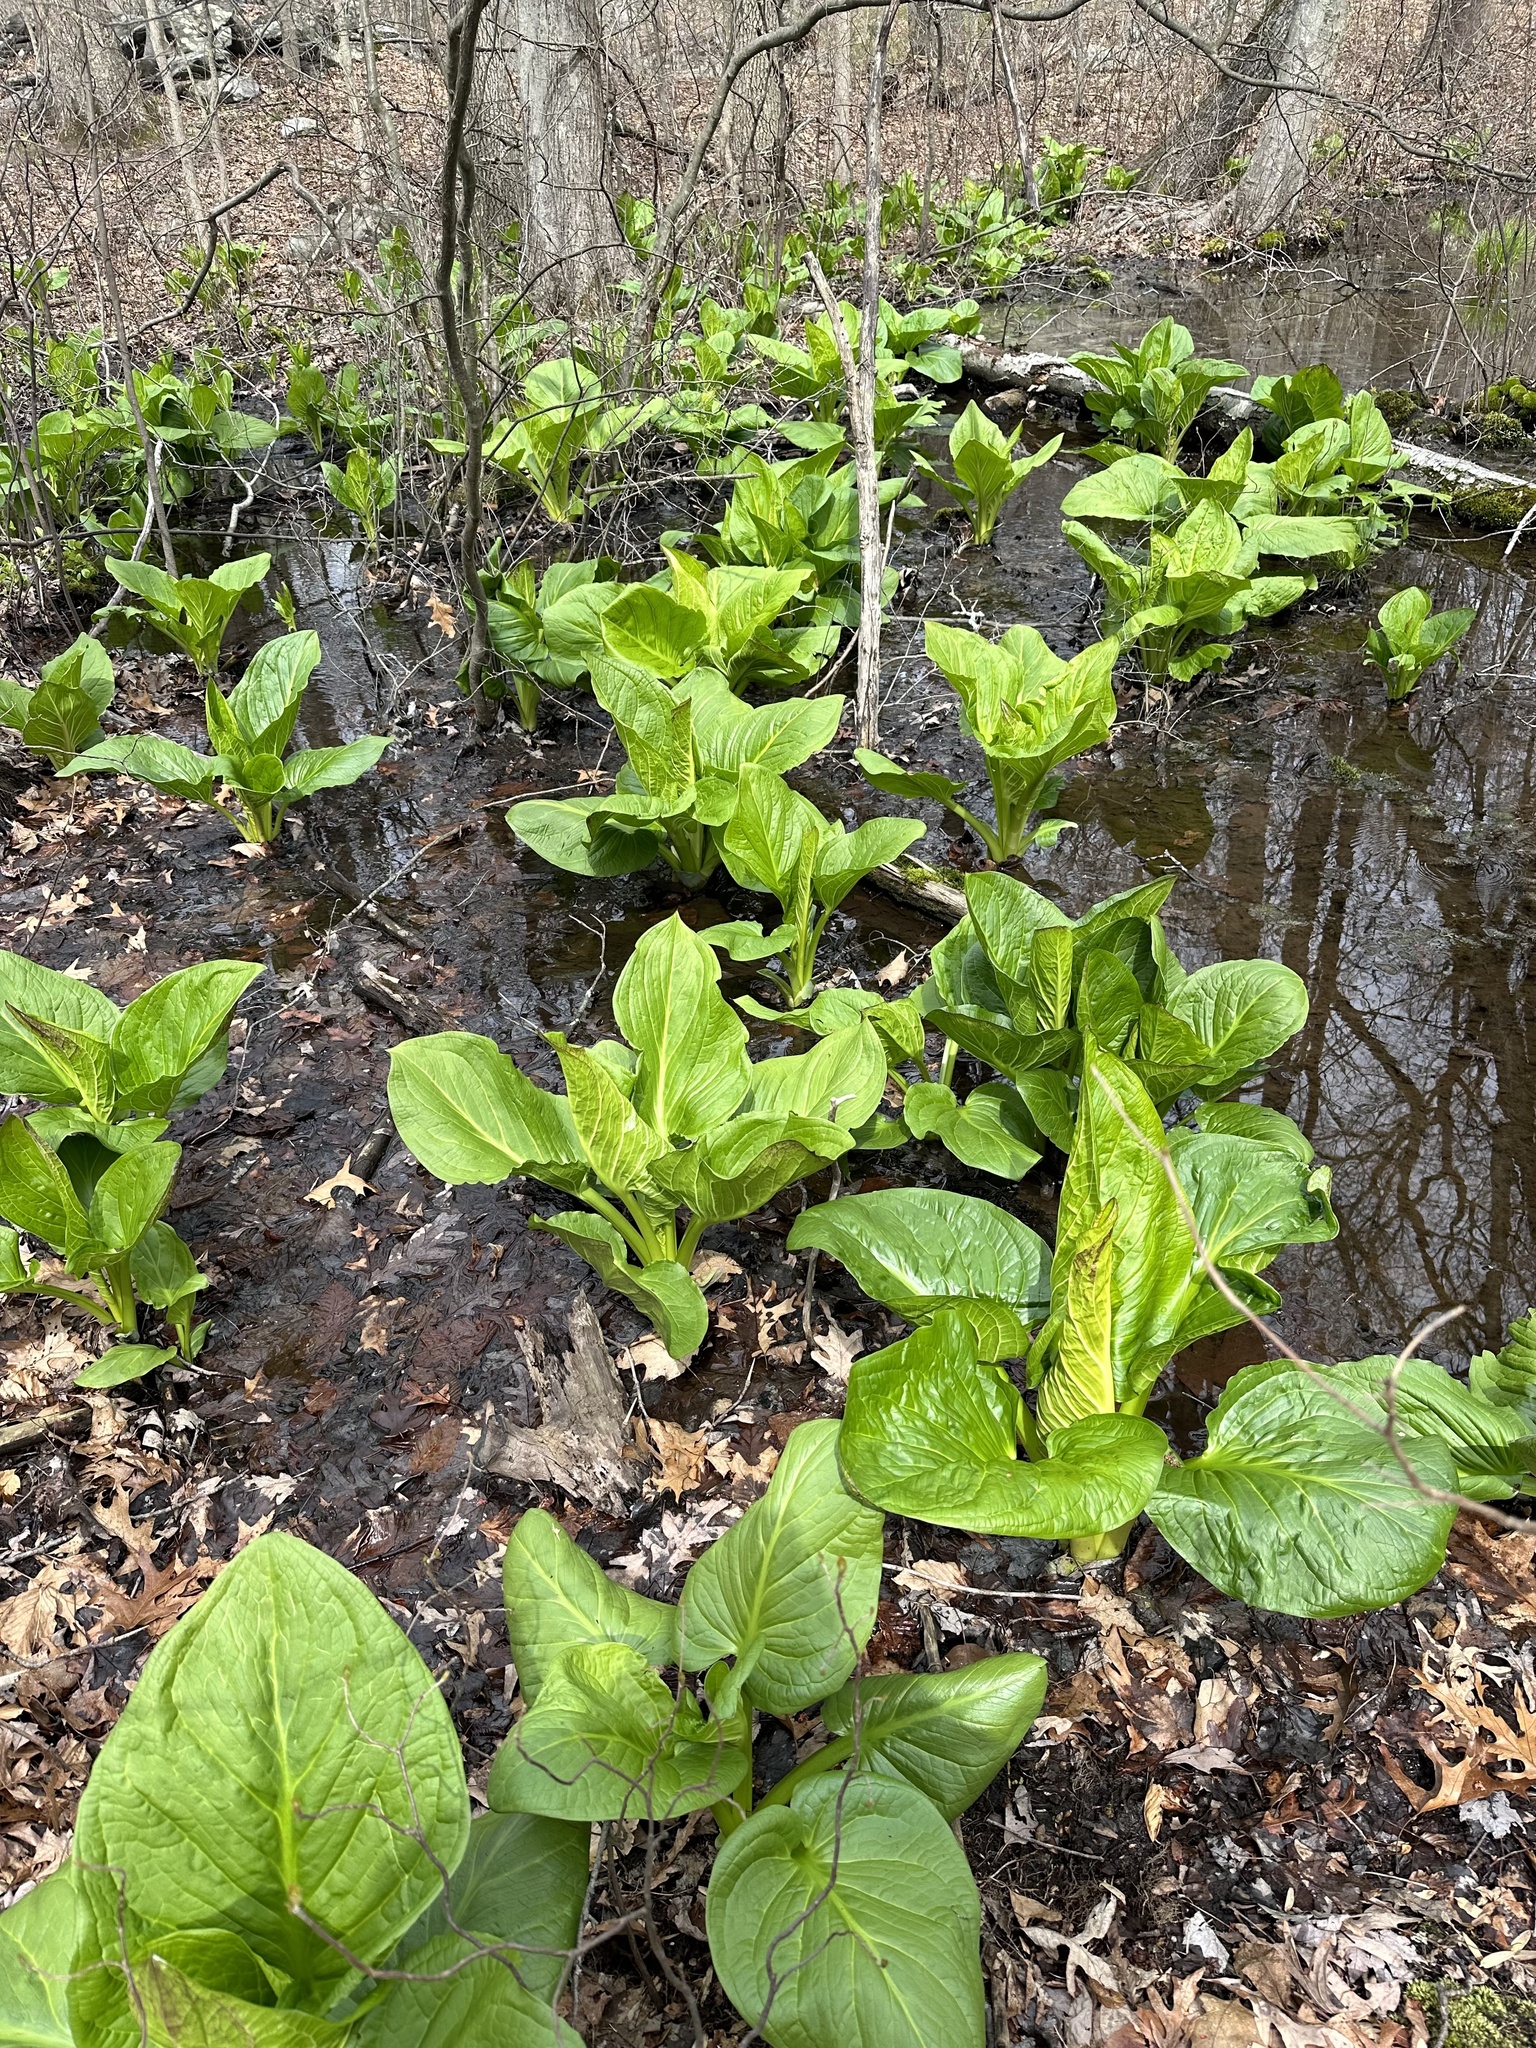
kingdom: Plantae
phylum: Tracheophyta
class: Liliopsida
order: Alismatales
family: Araceae
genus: Symplocarpus
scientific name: Symplocarpus foetidus
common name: Eastern skunk cabbage
